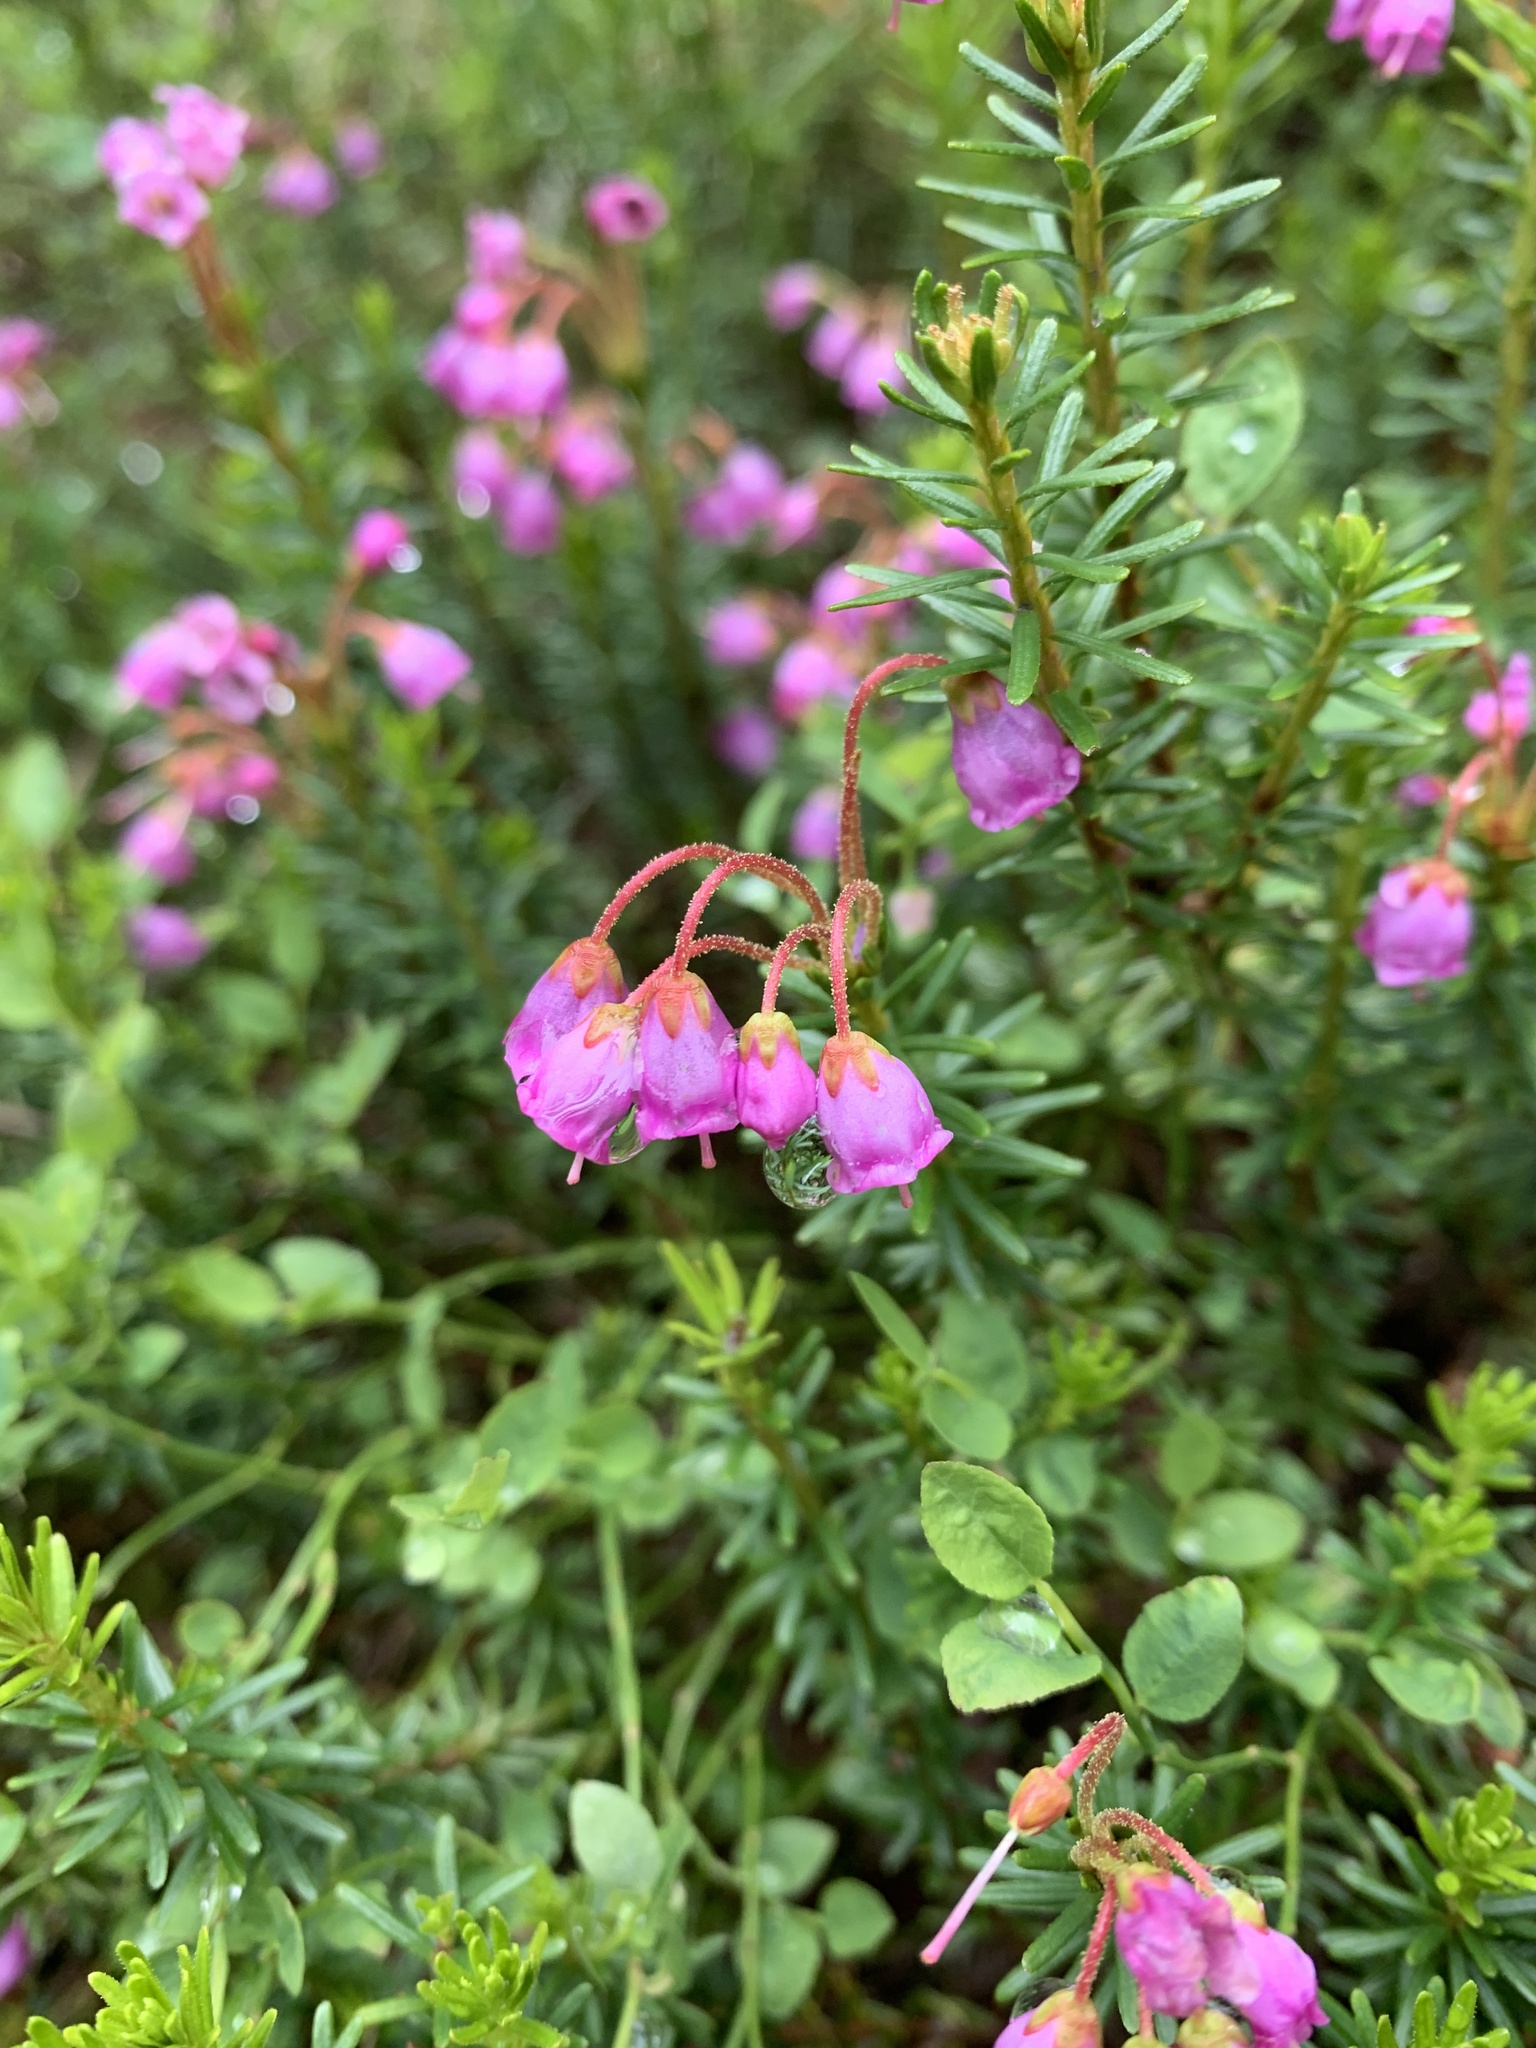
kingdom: Plantae
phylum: Tracheophyta
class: Magnoliopsida
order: Ericales
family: Ericaceae
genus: Phyllodoce
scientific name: Phyllodoce empetriformis
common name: Pink mountain heather
